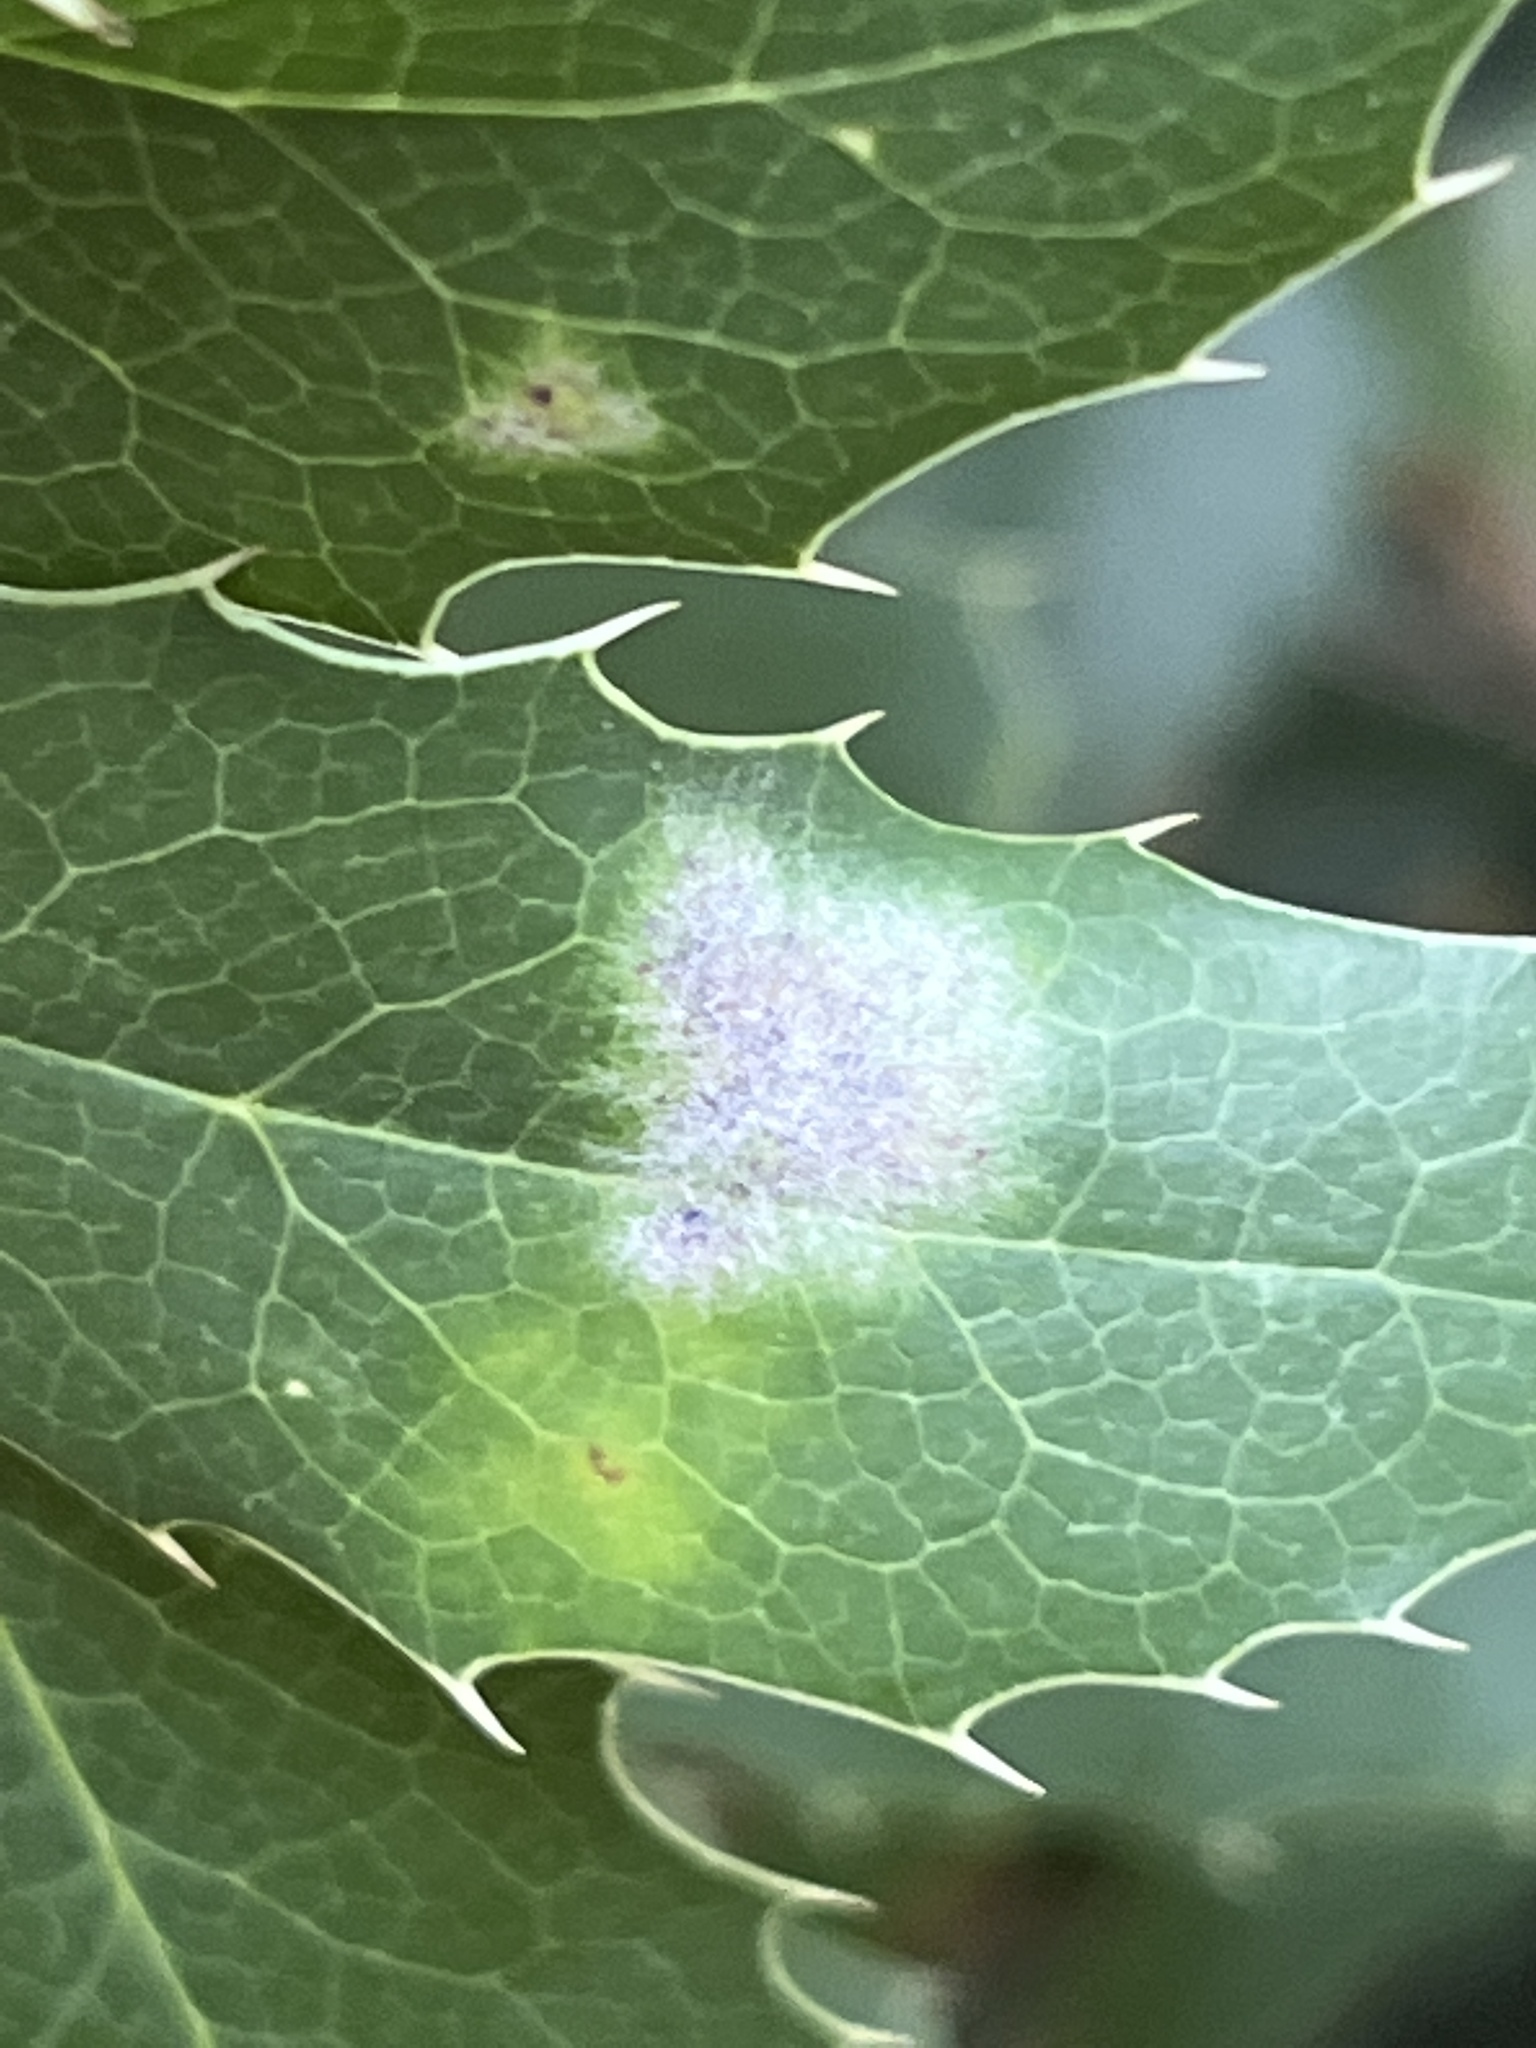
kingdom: Fungi
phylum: Ascomycota
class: Leotiomycetes
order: Helotiales
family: Erysiphaceae
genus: Erysiphe
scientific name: Erysiphe berberidis
